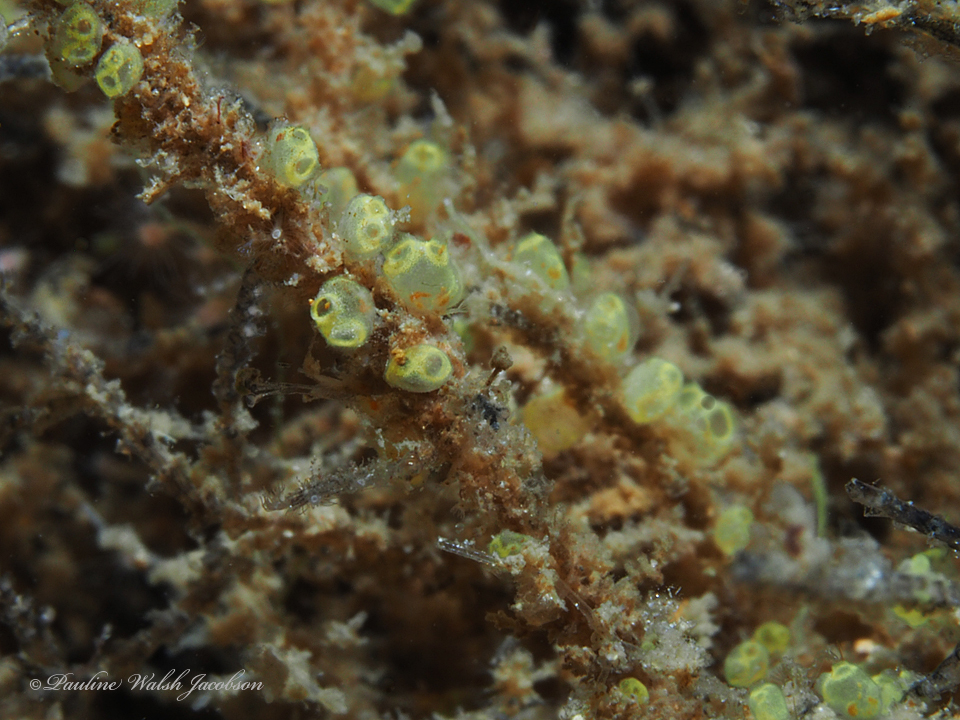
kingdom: Animalia
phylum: Chordata
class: Ascidiacea
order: Phlebobranchia
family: Perophoridae
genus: Perophora
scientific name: Perophora viridis
